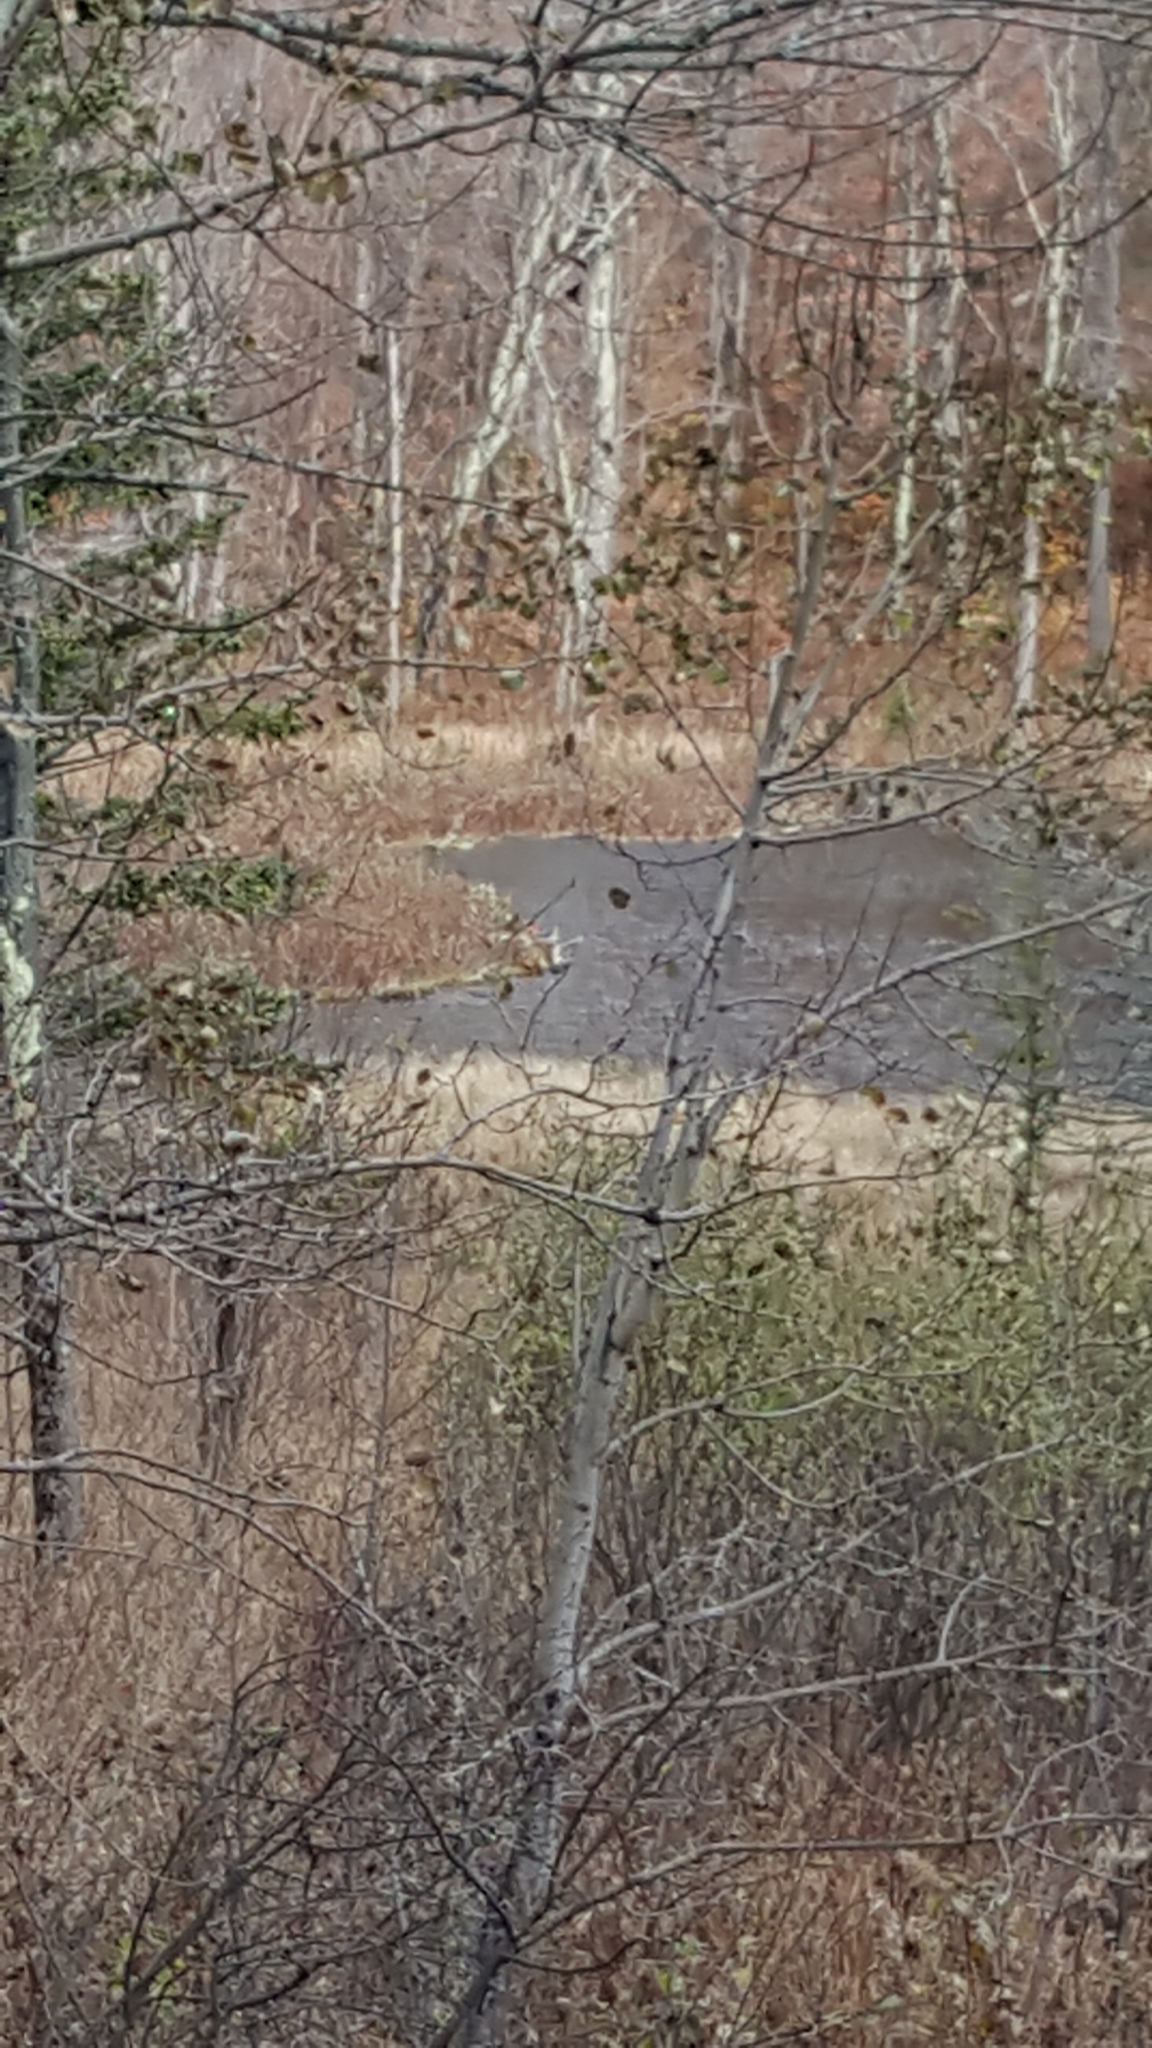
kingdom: Animalia
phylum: Chordata
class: Mammalia
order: Rodentia
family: Castoridae
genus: Castor
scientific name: Castor canadensis
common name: American beaver
